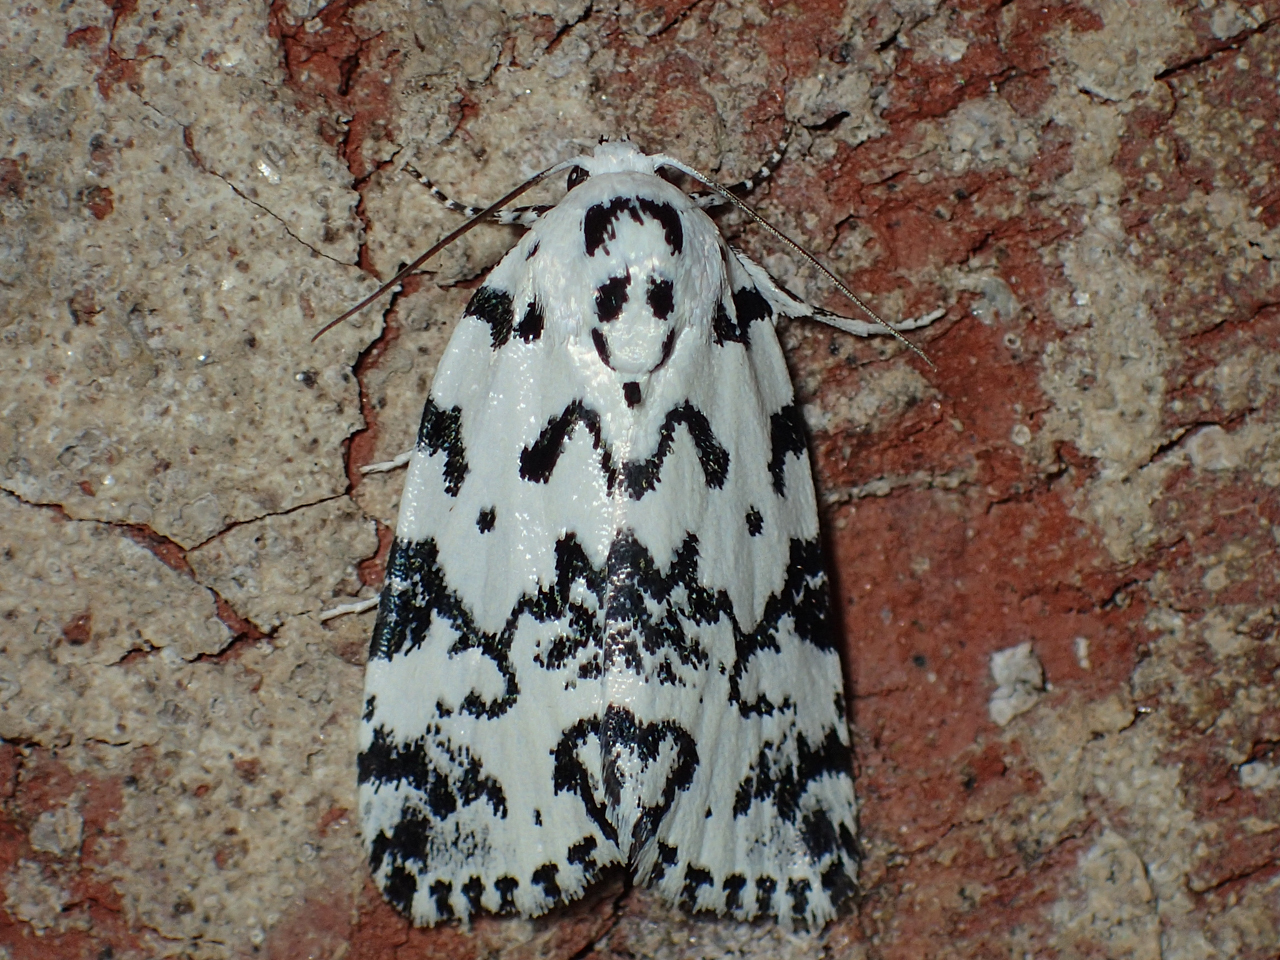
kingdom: Animalia
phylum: Arthropoda
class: Insecta
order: Lepidoptera
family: Noctuidae
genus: Polygrammate
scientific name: Polygrammate hebraeicum
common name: Hebrew moth
